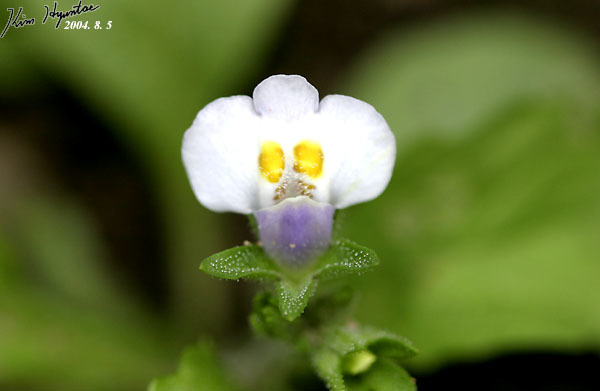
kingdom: Plantae
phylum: Tracheophyta
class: Magnoliopsida
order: Lamiales
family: Mazaceae
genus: Mazus
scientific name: Mazus pumilus
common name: Japanese mazus
